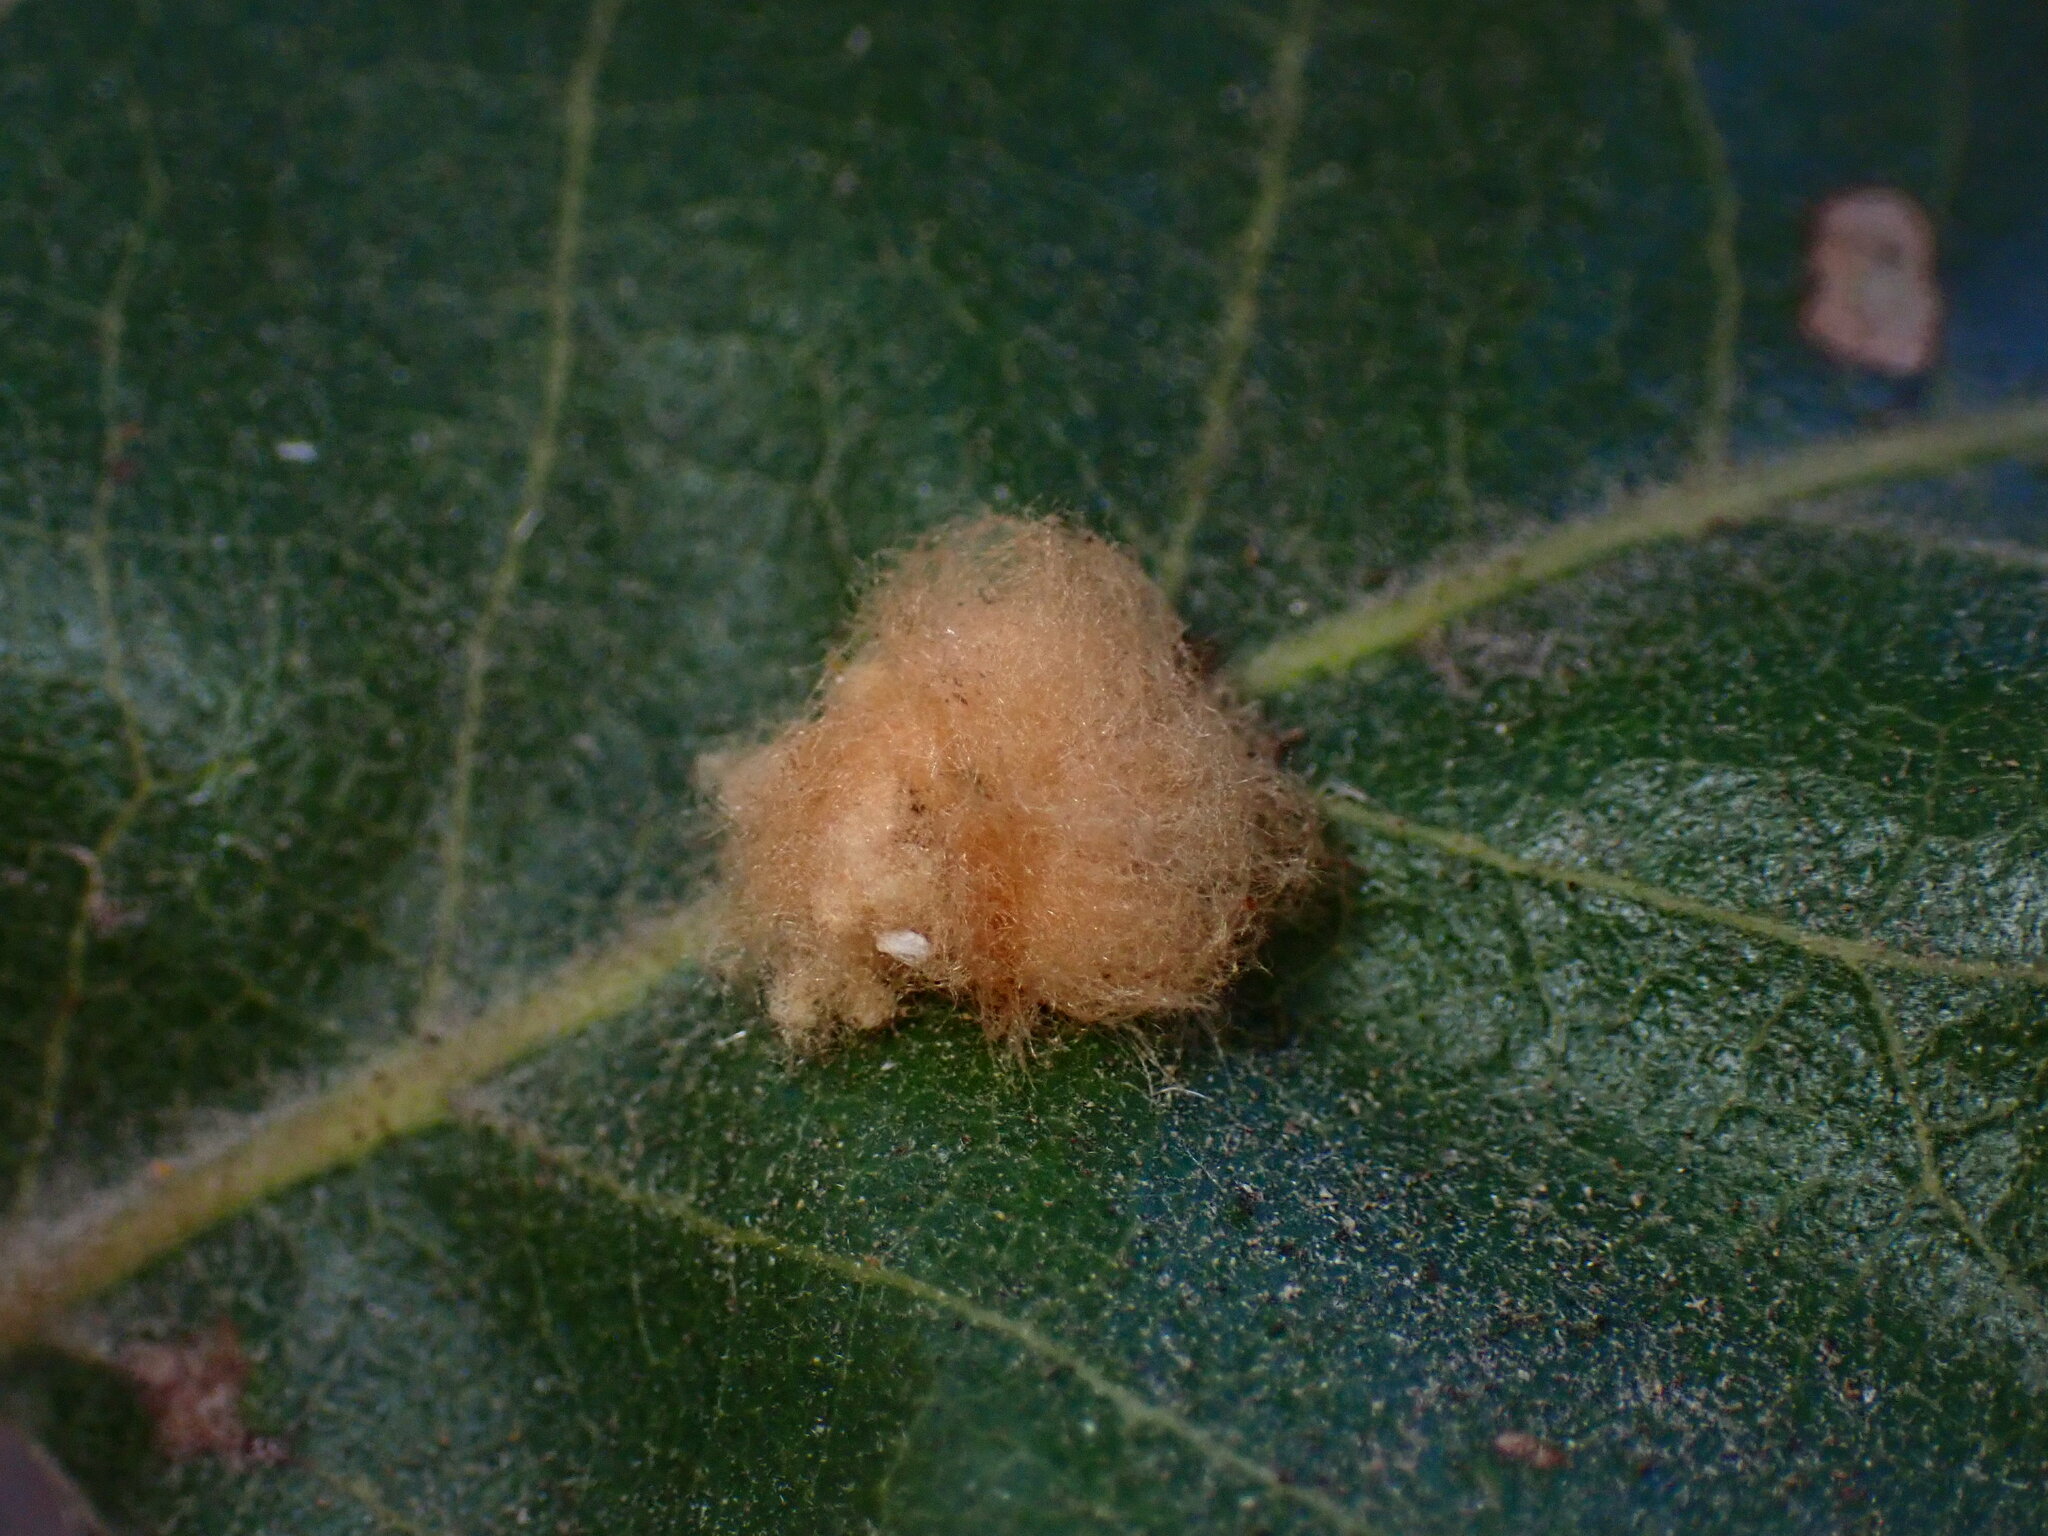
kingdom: Animalia
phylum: Arthropoda
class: Insecta
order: Hymenoptera
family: Cynipidae
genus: Andricus
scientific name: Andricus Druon fullawayi
